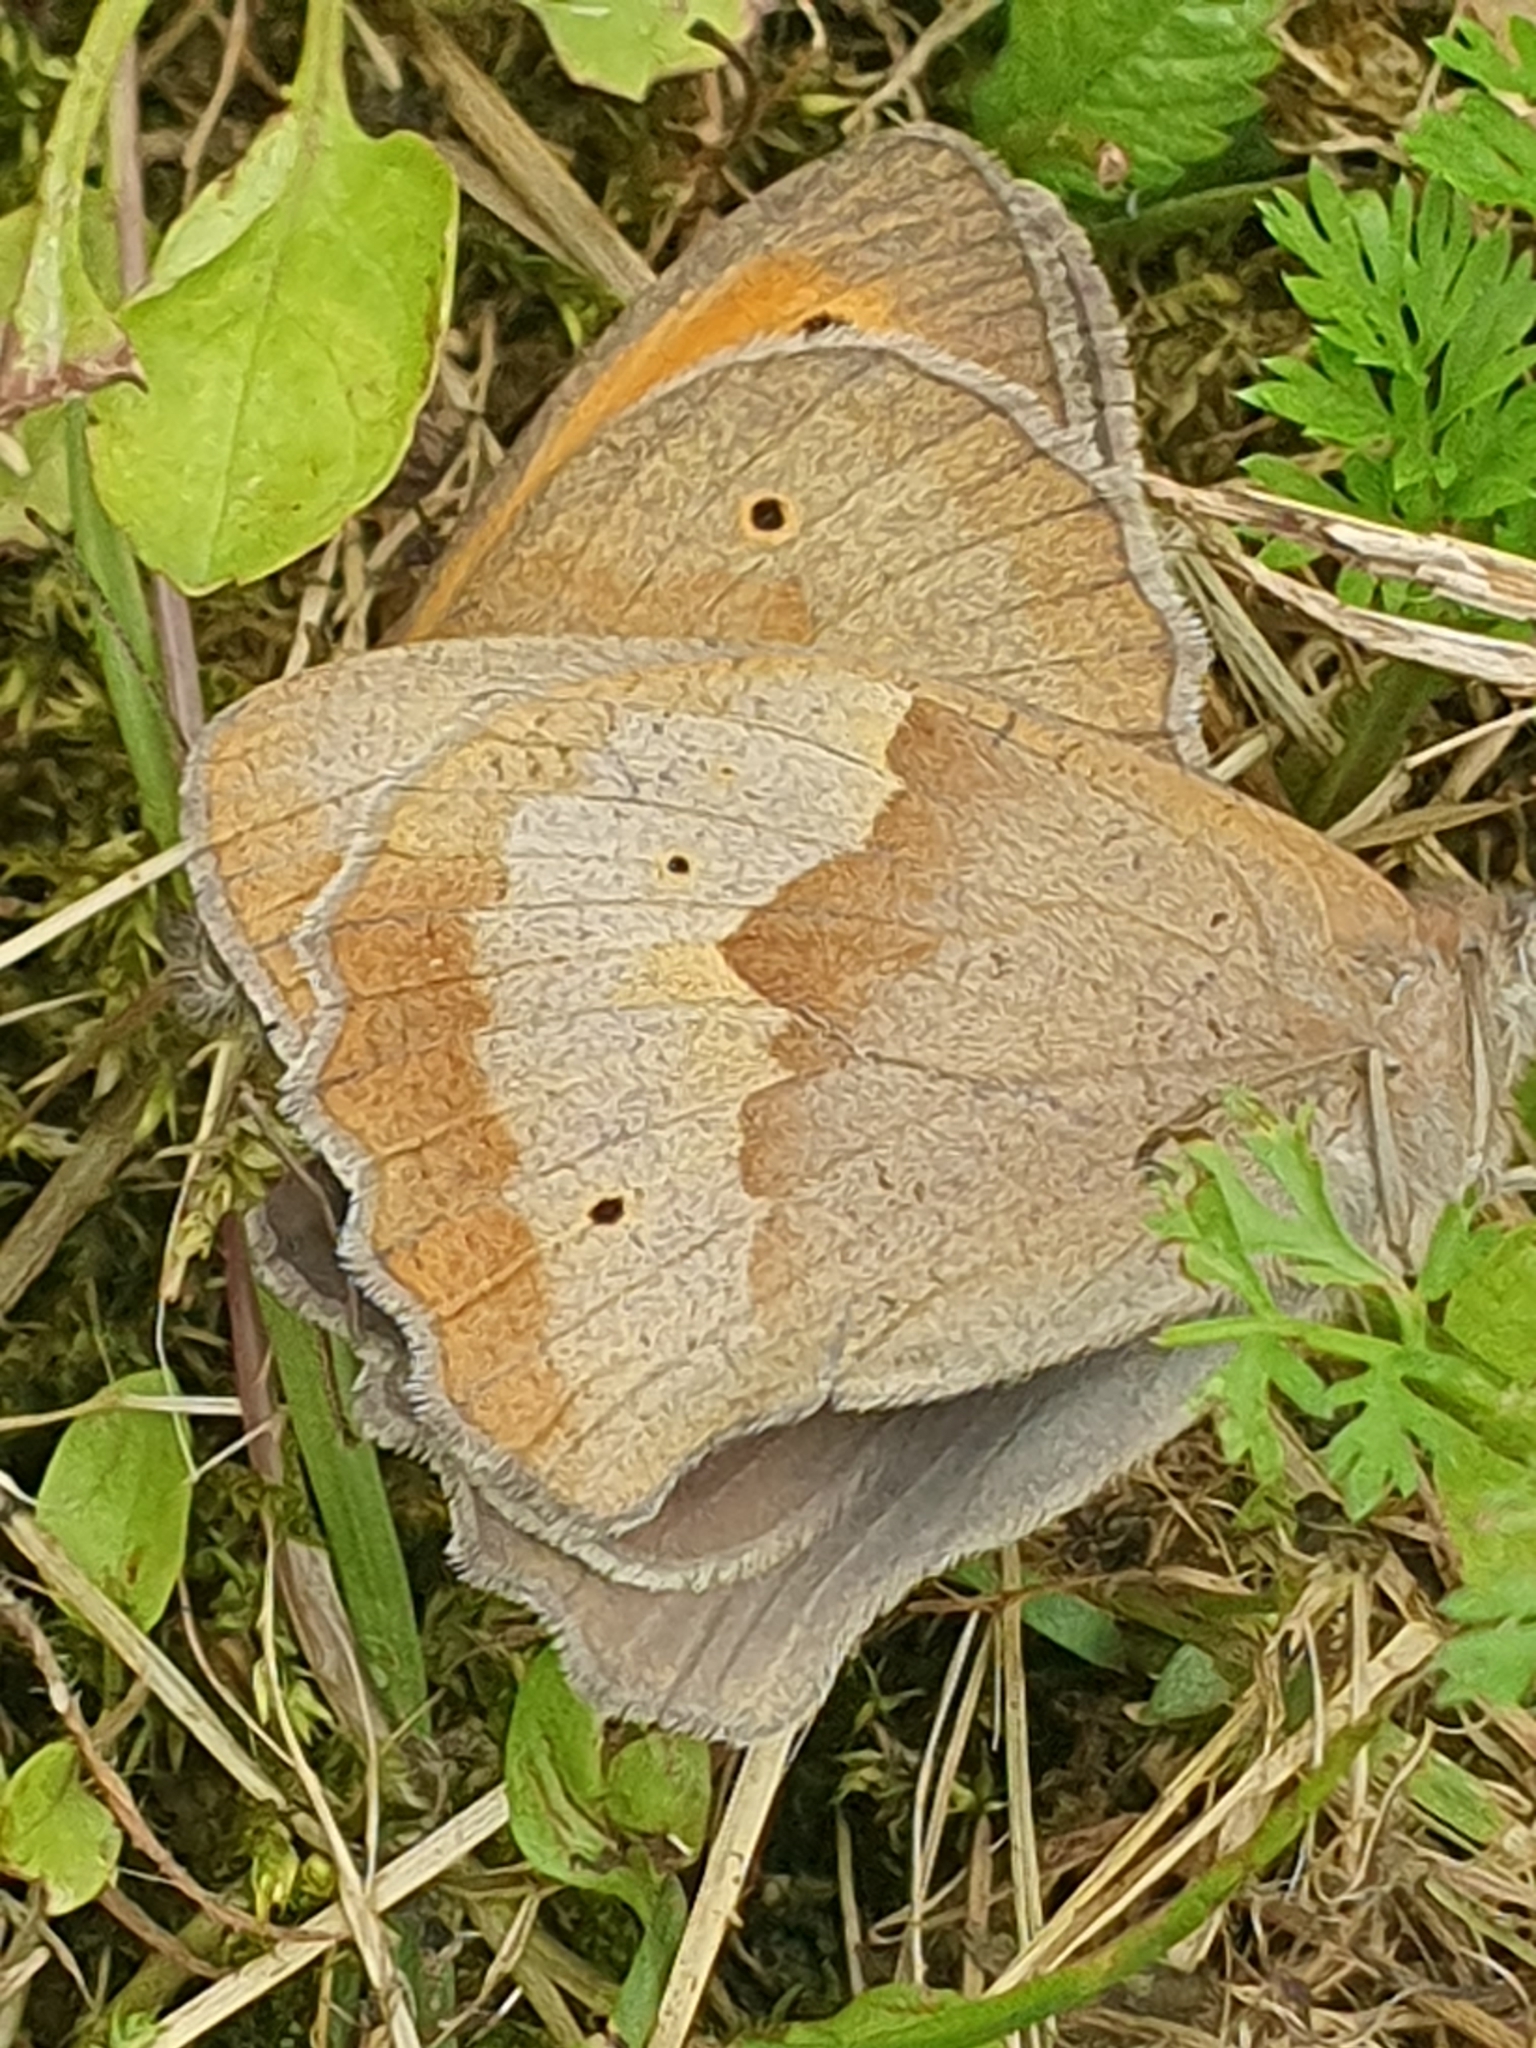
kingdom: Animalia
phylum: Arthropoda
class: Insecta
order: Lepidoptera
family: Nymphalidae
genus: Maniola
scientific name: Maniola jurtina
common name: Meadow brown
